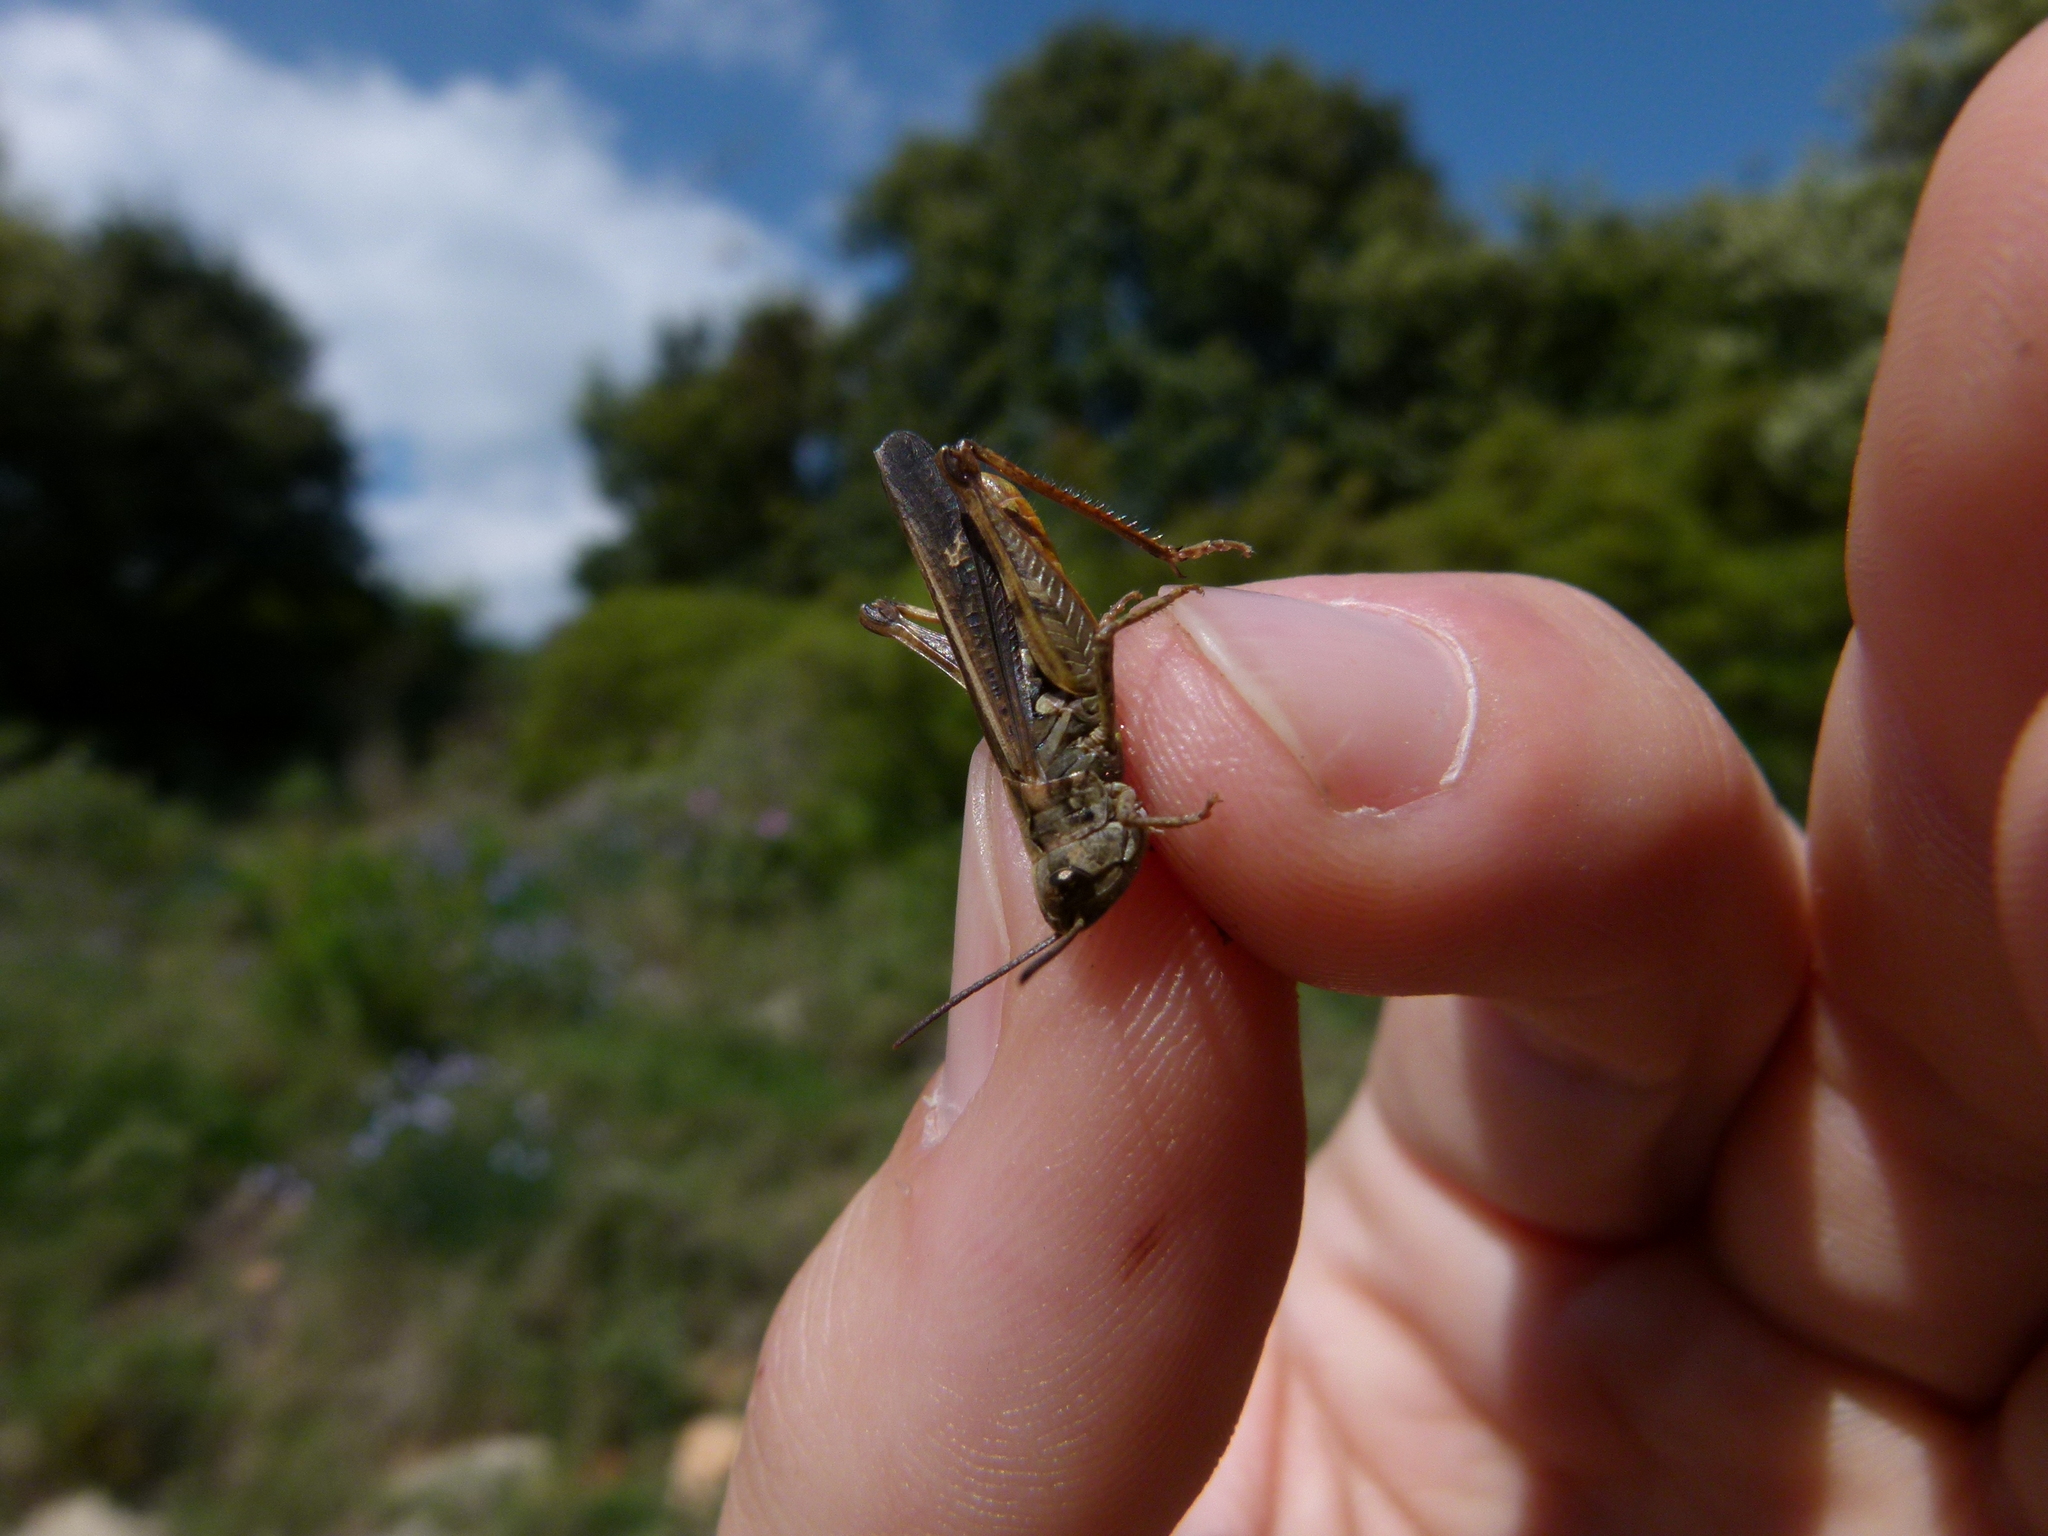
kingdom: Animalia
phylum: Arthropoda
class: Insecta
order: Orthoptera
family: Acrididae
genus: Omocestus
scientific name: Omocestus raymondi
